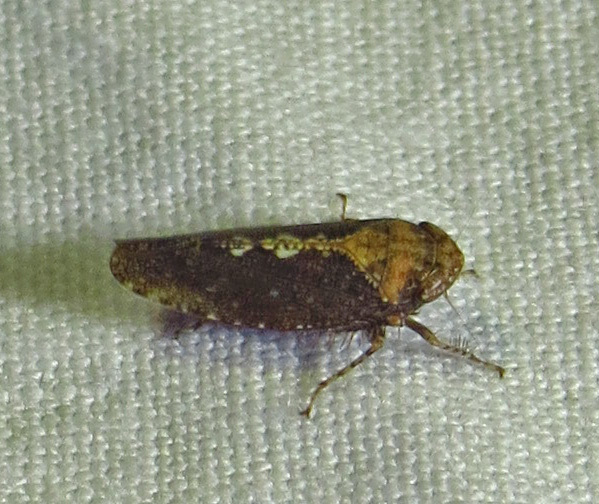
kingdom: Animalia
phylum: Arthropoda
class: Insecta
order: Hemiptera
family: Cicadellidae
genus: Excultanus
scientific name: Excultanus excultus
